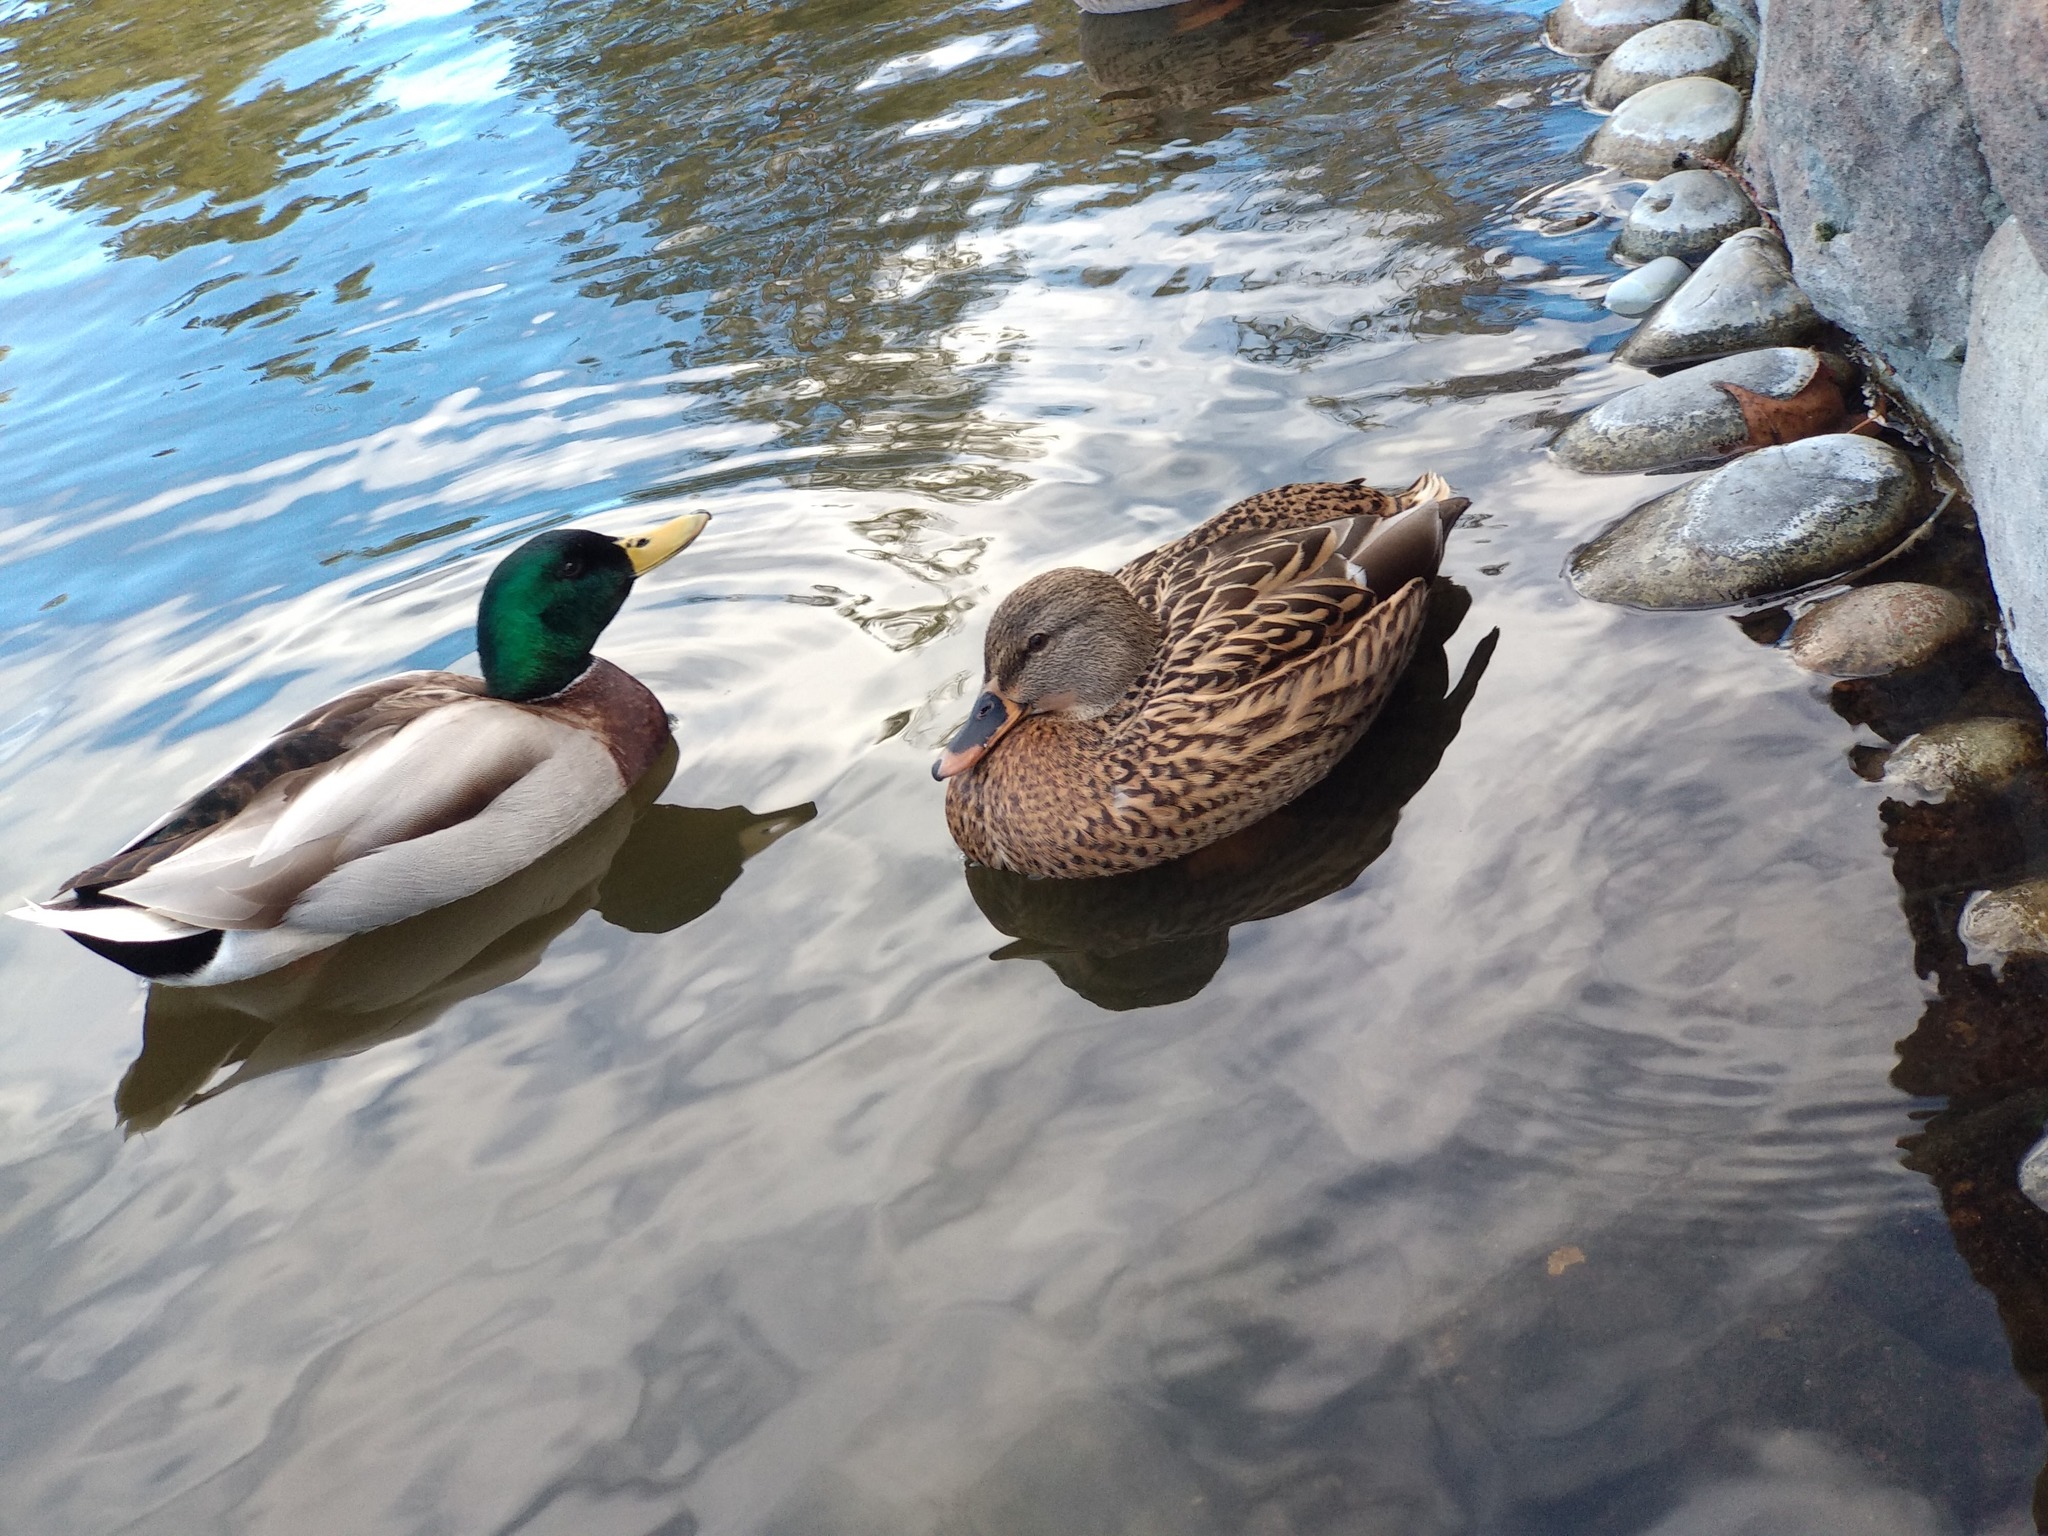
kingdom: Animalia
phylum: Chordata
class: Aves
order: Anseriformes
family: Anatidae
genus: Anas
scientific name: Anas platyrhynchos
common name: Mallard
